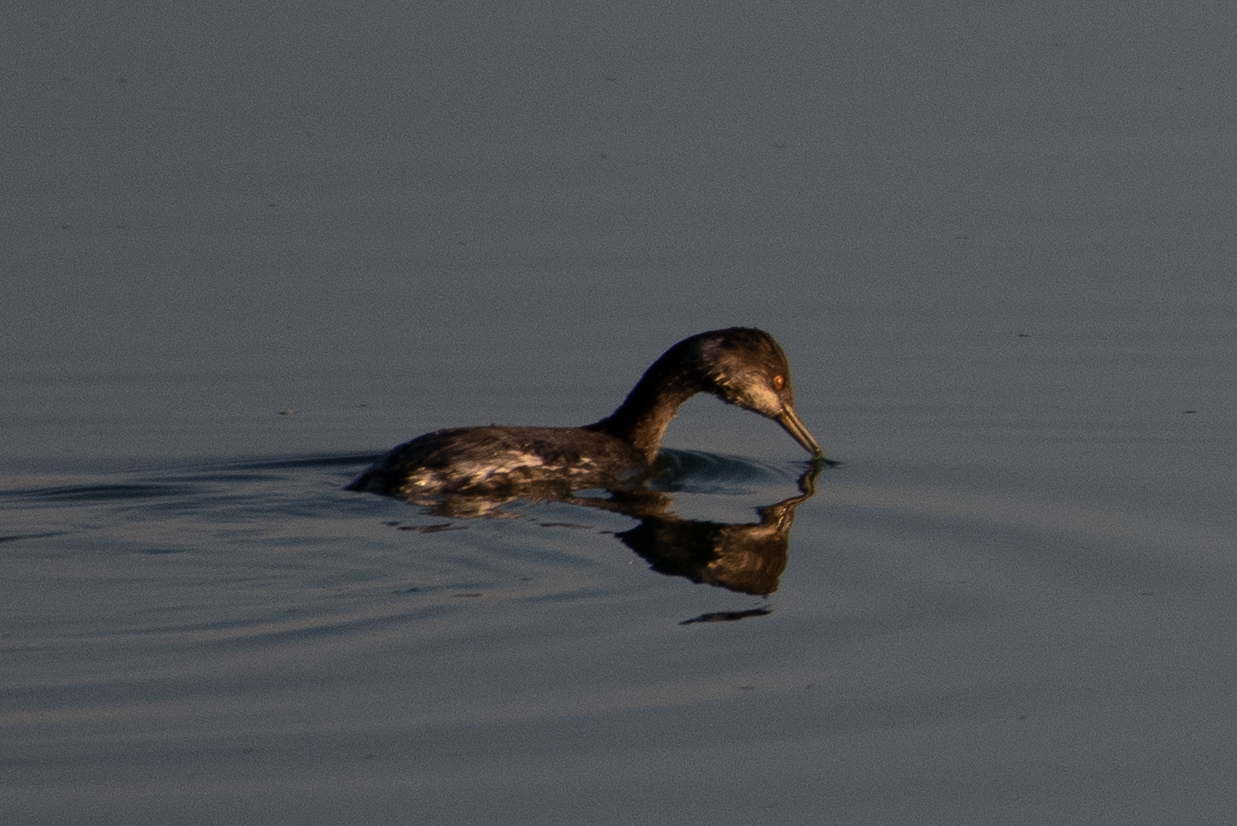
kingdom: Animalia
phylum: Chordata
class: Aves
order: Podicipediformes
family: Podicipedidae
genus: Podiceps
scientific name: Podiceps nigricollis
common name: Black-necked grebe
